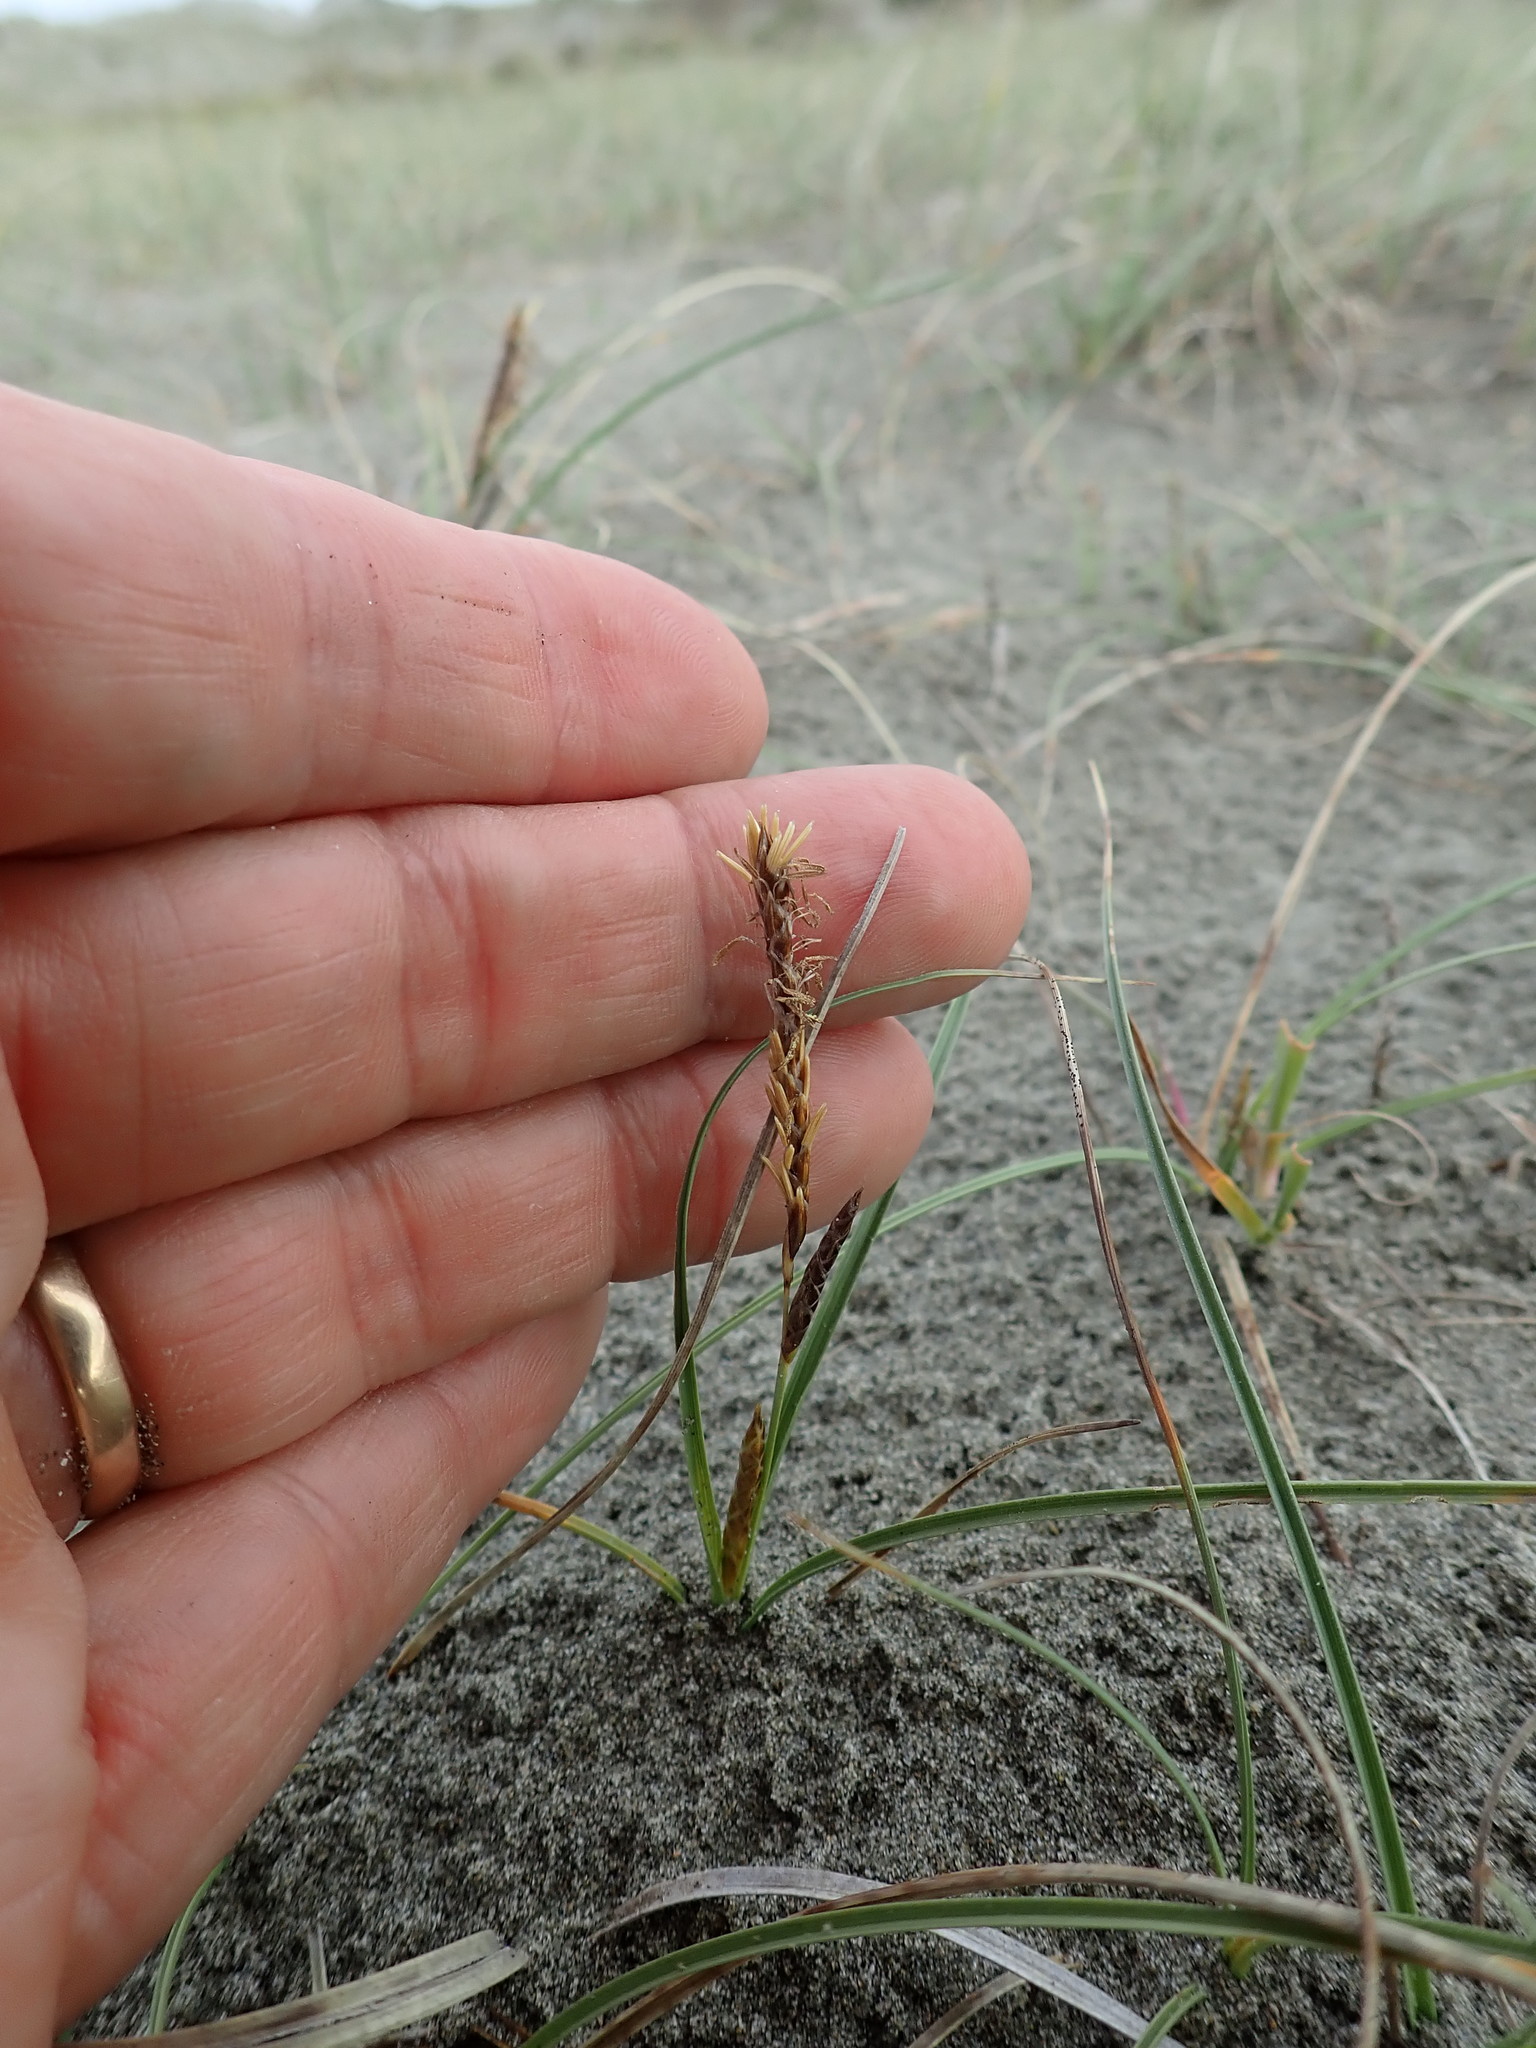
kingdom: Plantae
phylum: Tracheophyta
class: Liliopsida
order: Poales
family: Cyperaceae
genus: Carex
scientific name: Carex pumila
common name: Dwarf sedge
